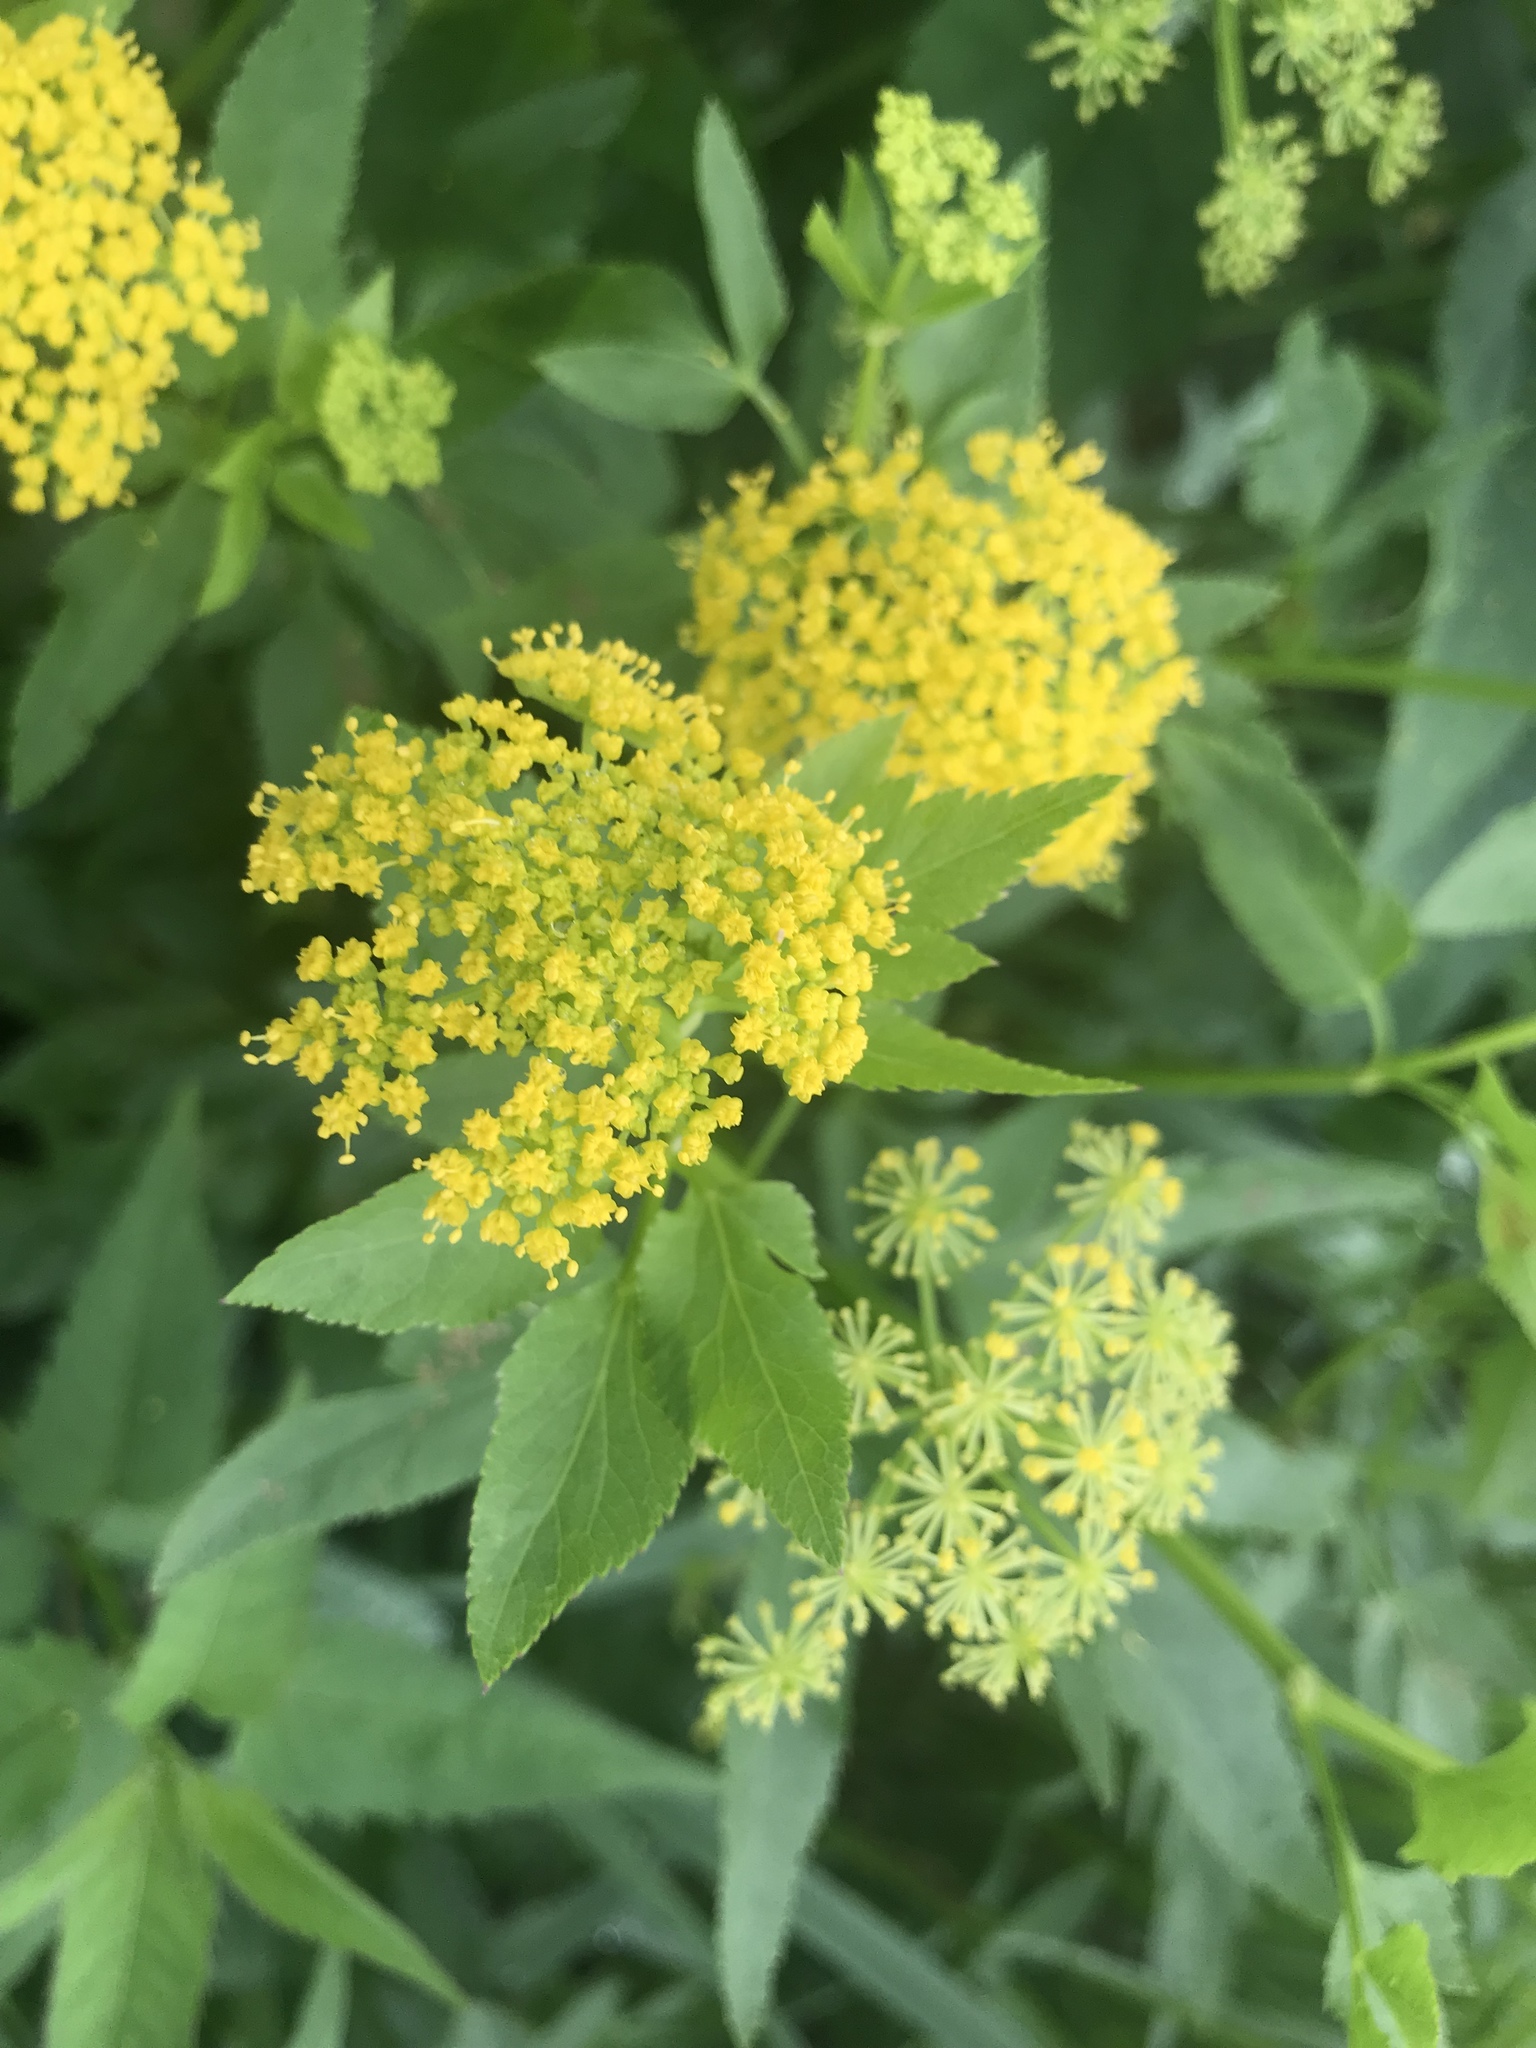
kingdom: Plantae
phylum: Tracheophyta
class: Magnoliopsida
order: Apiales
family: Apiaceae
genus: Zizia
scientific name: Zizia aurea
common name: Golden alexanders
